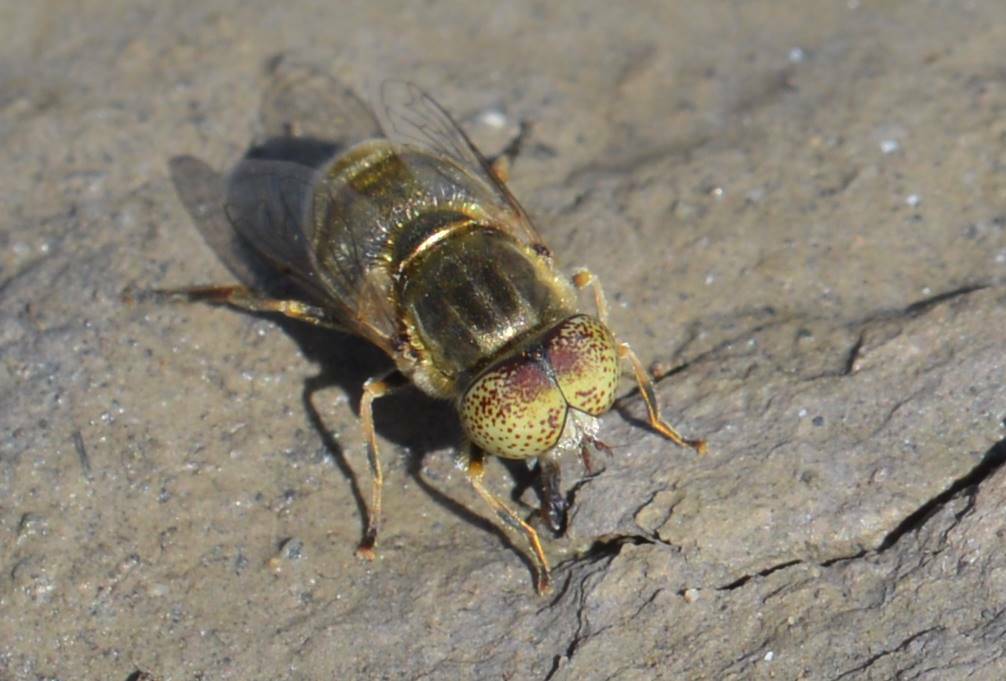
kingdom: Animalia
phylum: Arthropoda
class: Insecta
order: Diptera
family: Syrphidae
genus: Eristalinus
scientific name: Eristalinus aeneus
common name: Syrphid fly
